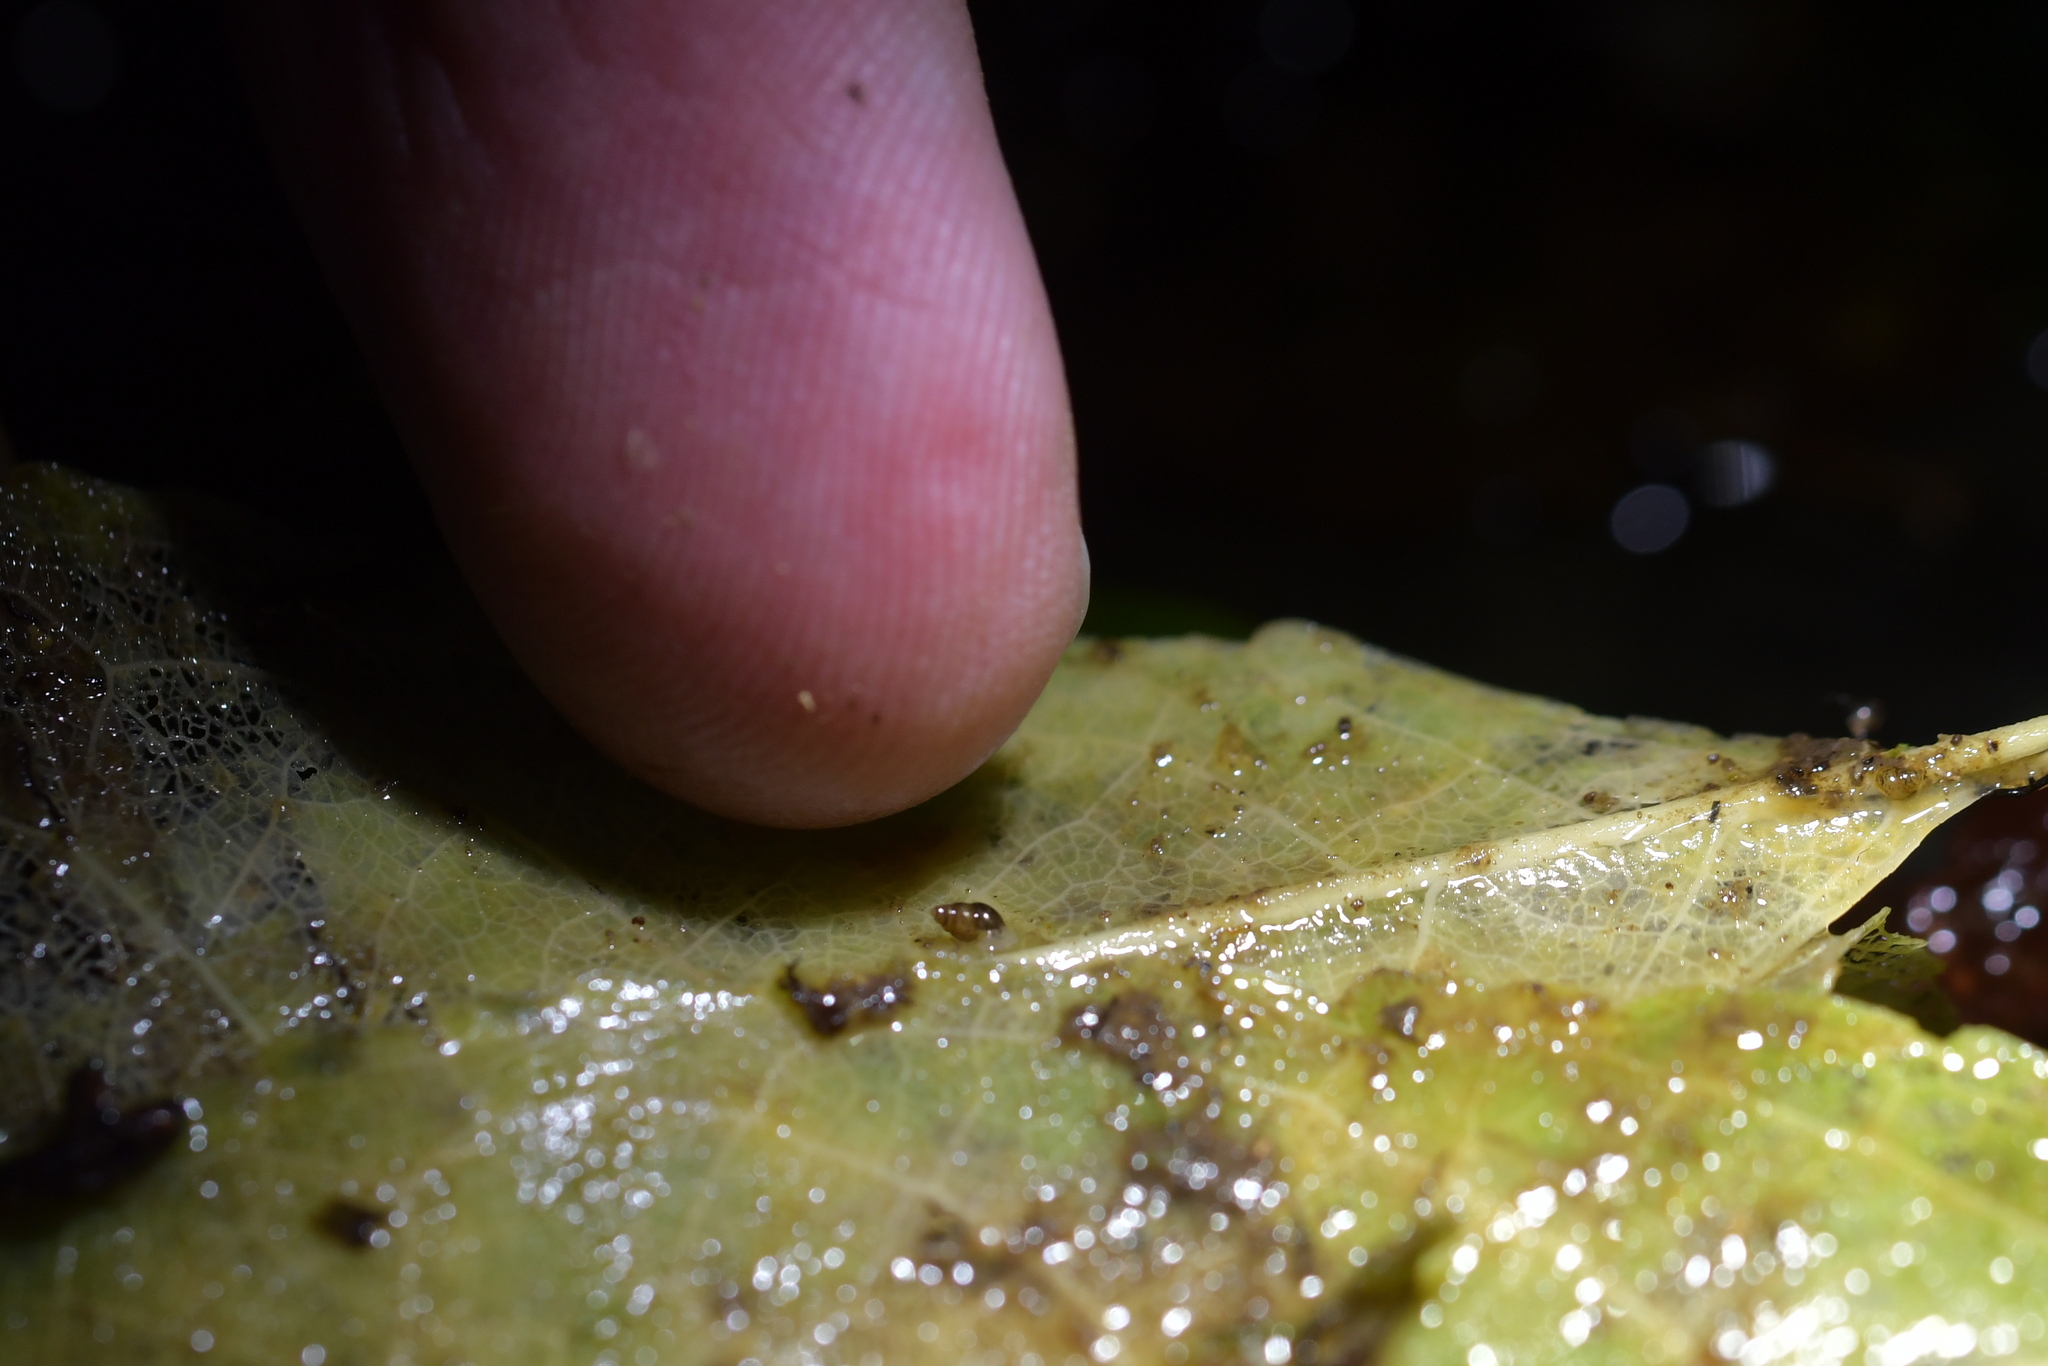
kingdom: Animalia
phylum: Mollusca
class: Gastropoda
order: Littorinimorpha
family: Tateidae
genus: Potamopyrgus
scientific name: Potamopyrgus antipodarum
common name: Jenkins' spire snail
